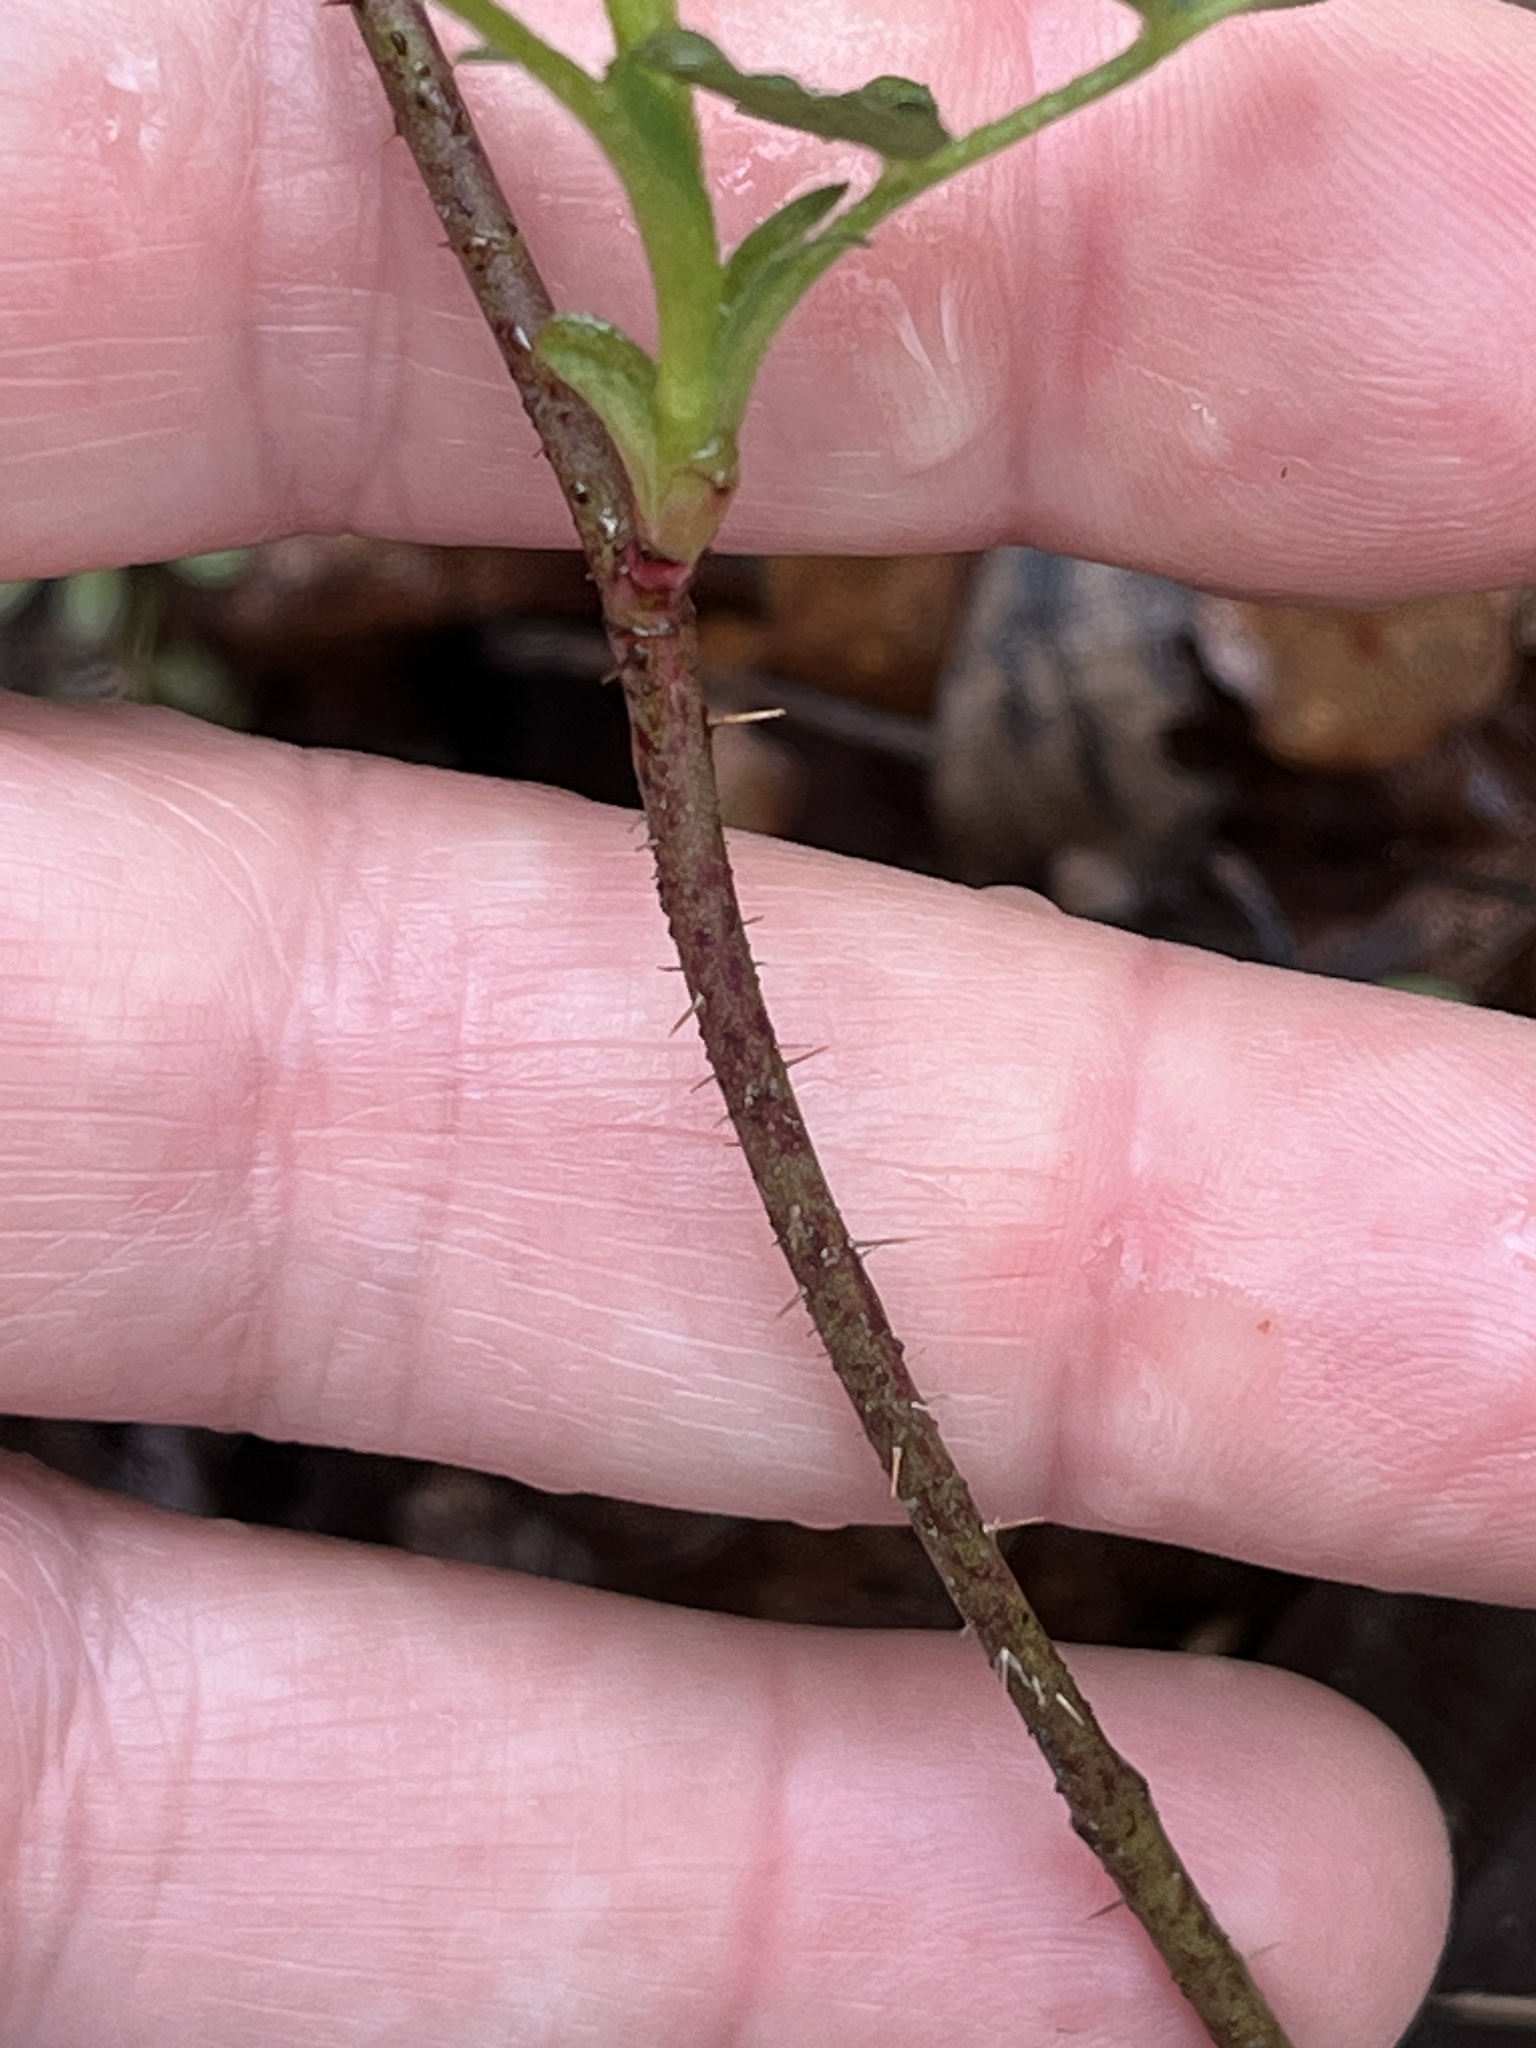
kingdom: Plantae
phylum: Tracheophyta
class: Magnoliopsida
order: Rosales
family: Rosaceae
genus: Rosa
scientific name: Rosa carolina
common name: Pasture rose
